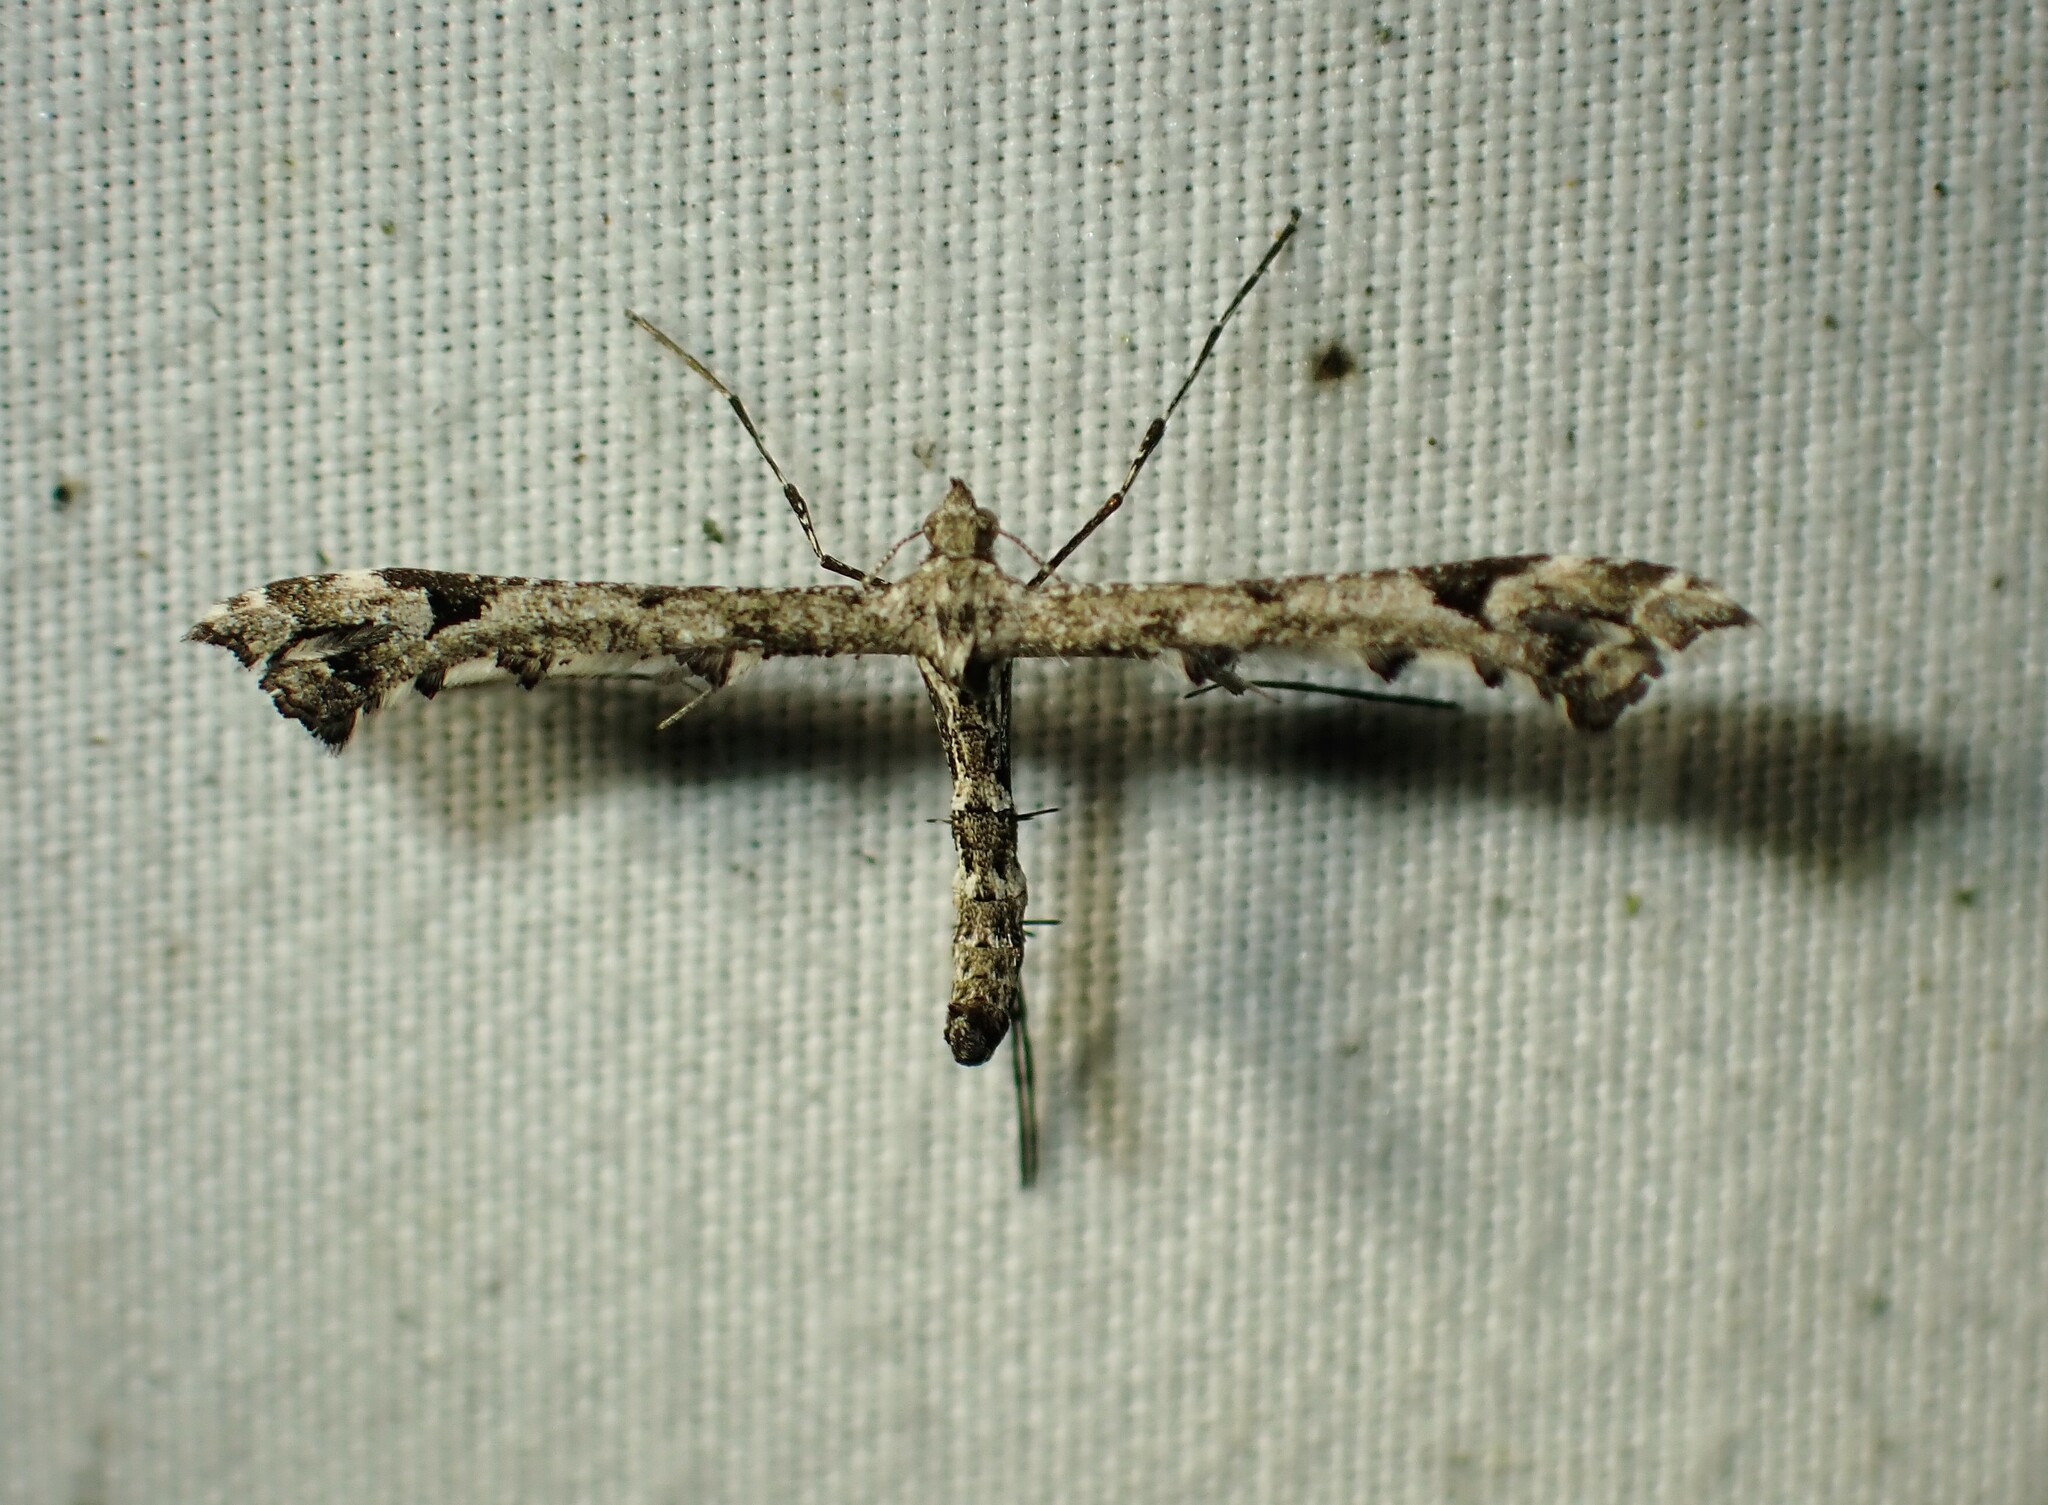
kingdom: Animalia
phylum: Arthropoda
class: Insecta
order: Lepidoptera
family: Pterophoridae
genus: Amblyptilia
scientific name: Amblyptilia pica
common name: Geranium plume moth
